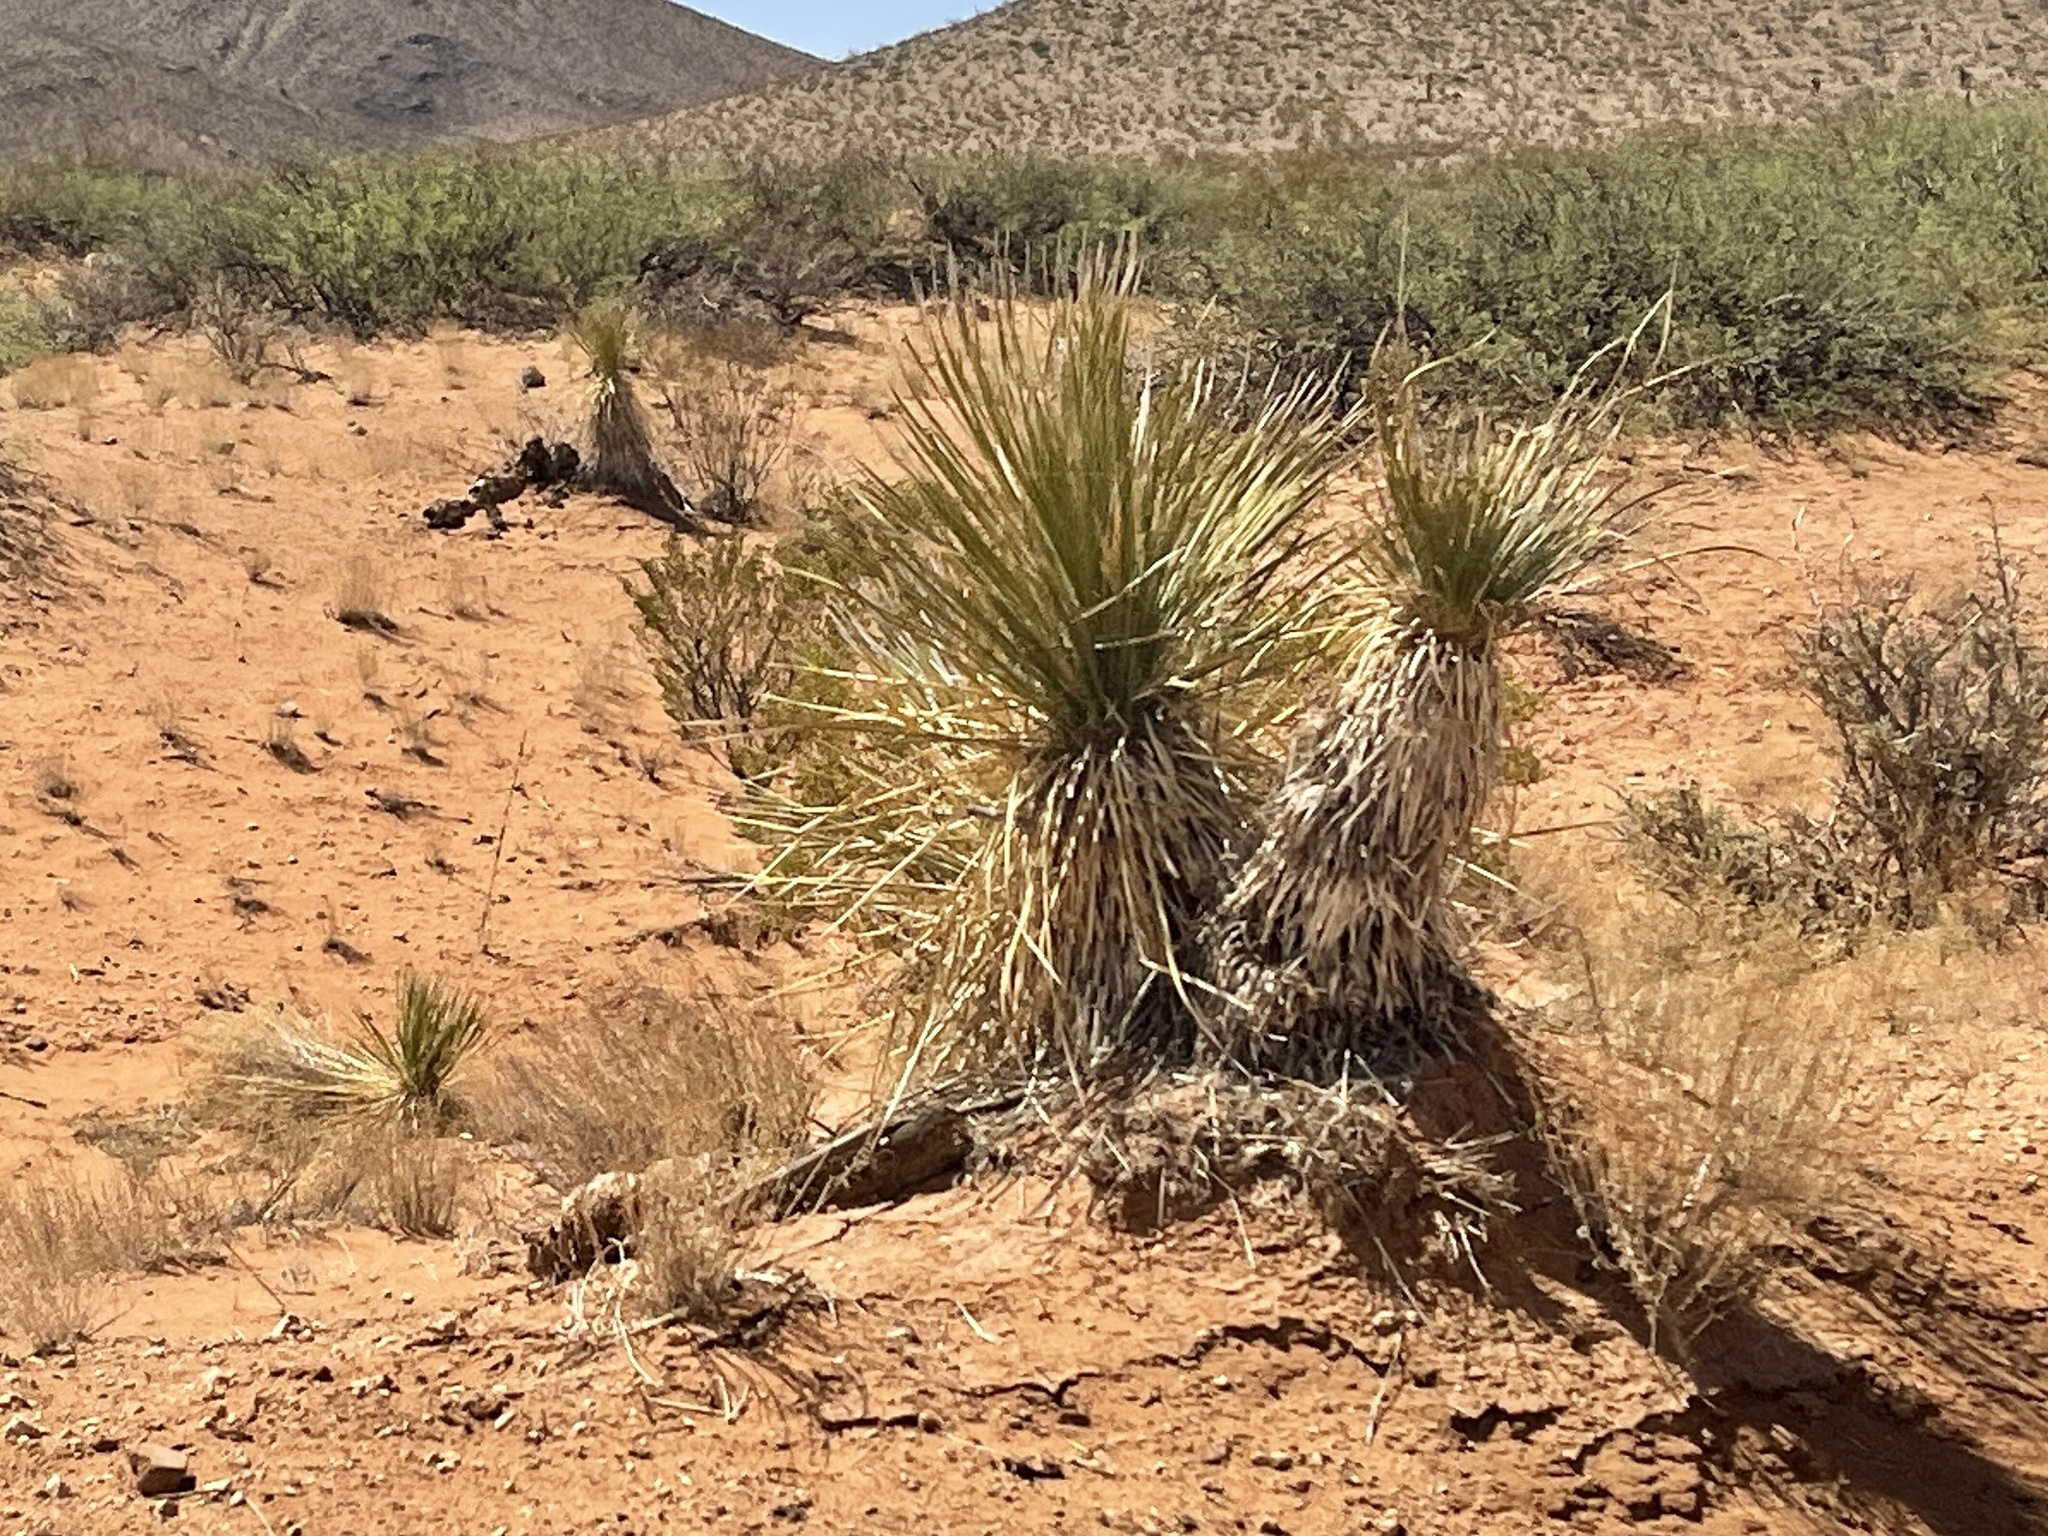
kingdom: Plantae
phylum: Tracheophyta
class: Liliopsida
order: Asparagales
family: Asparagaceae
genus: Yucca
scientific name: Yucca elata
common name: Palmella
